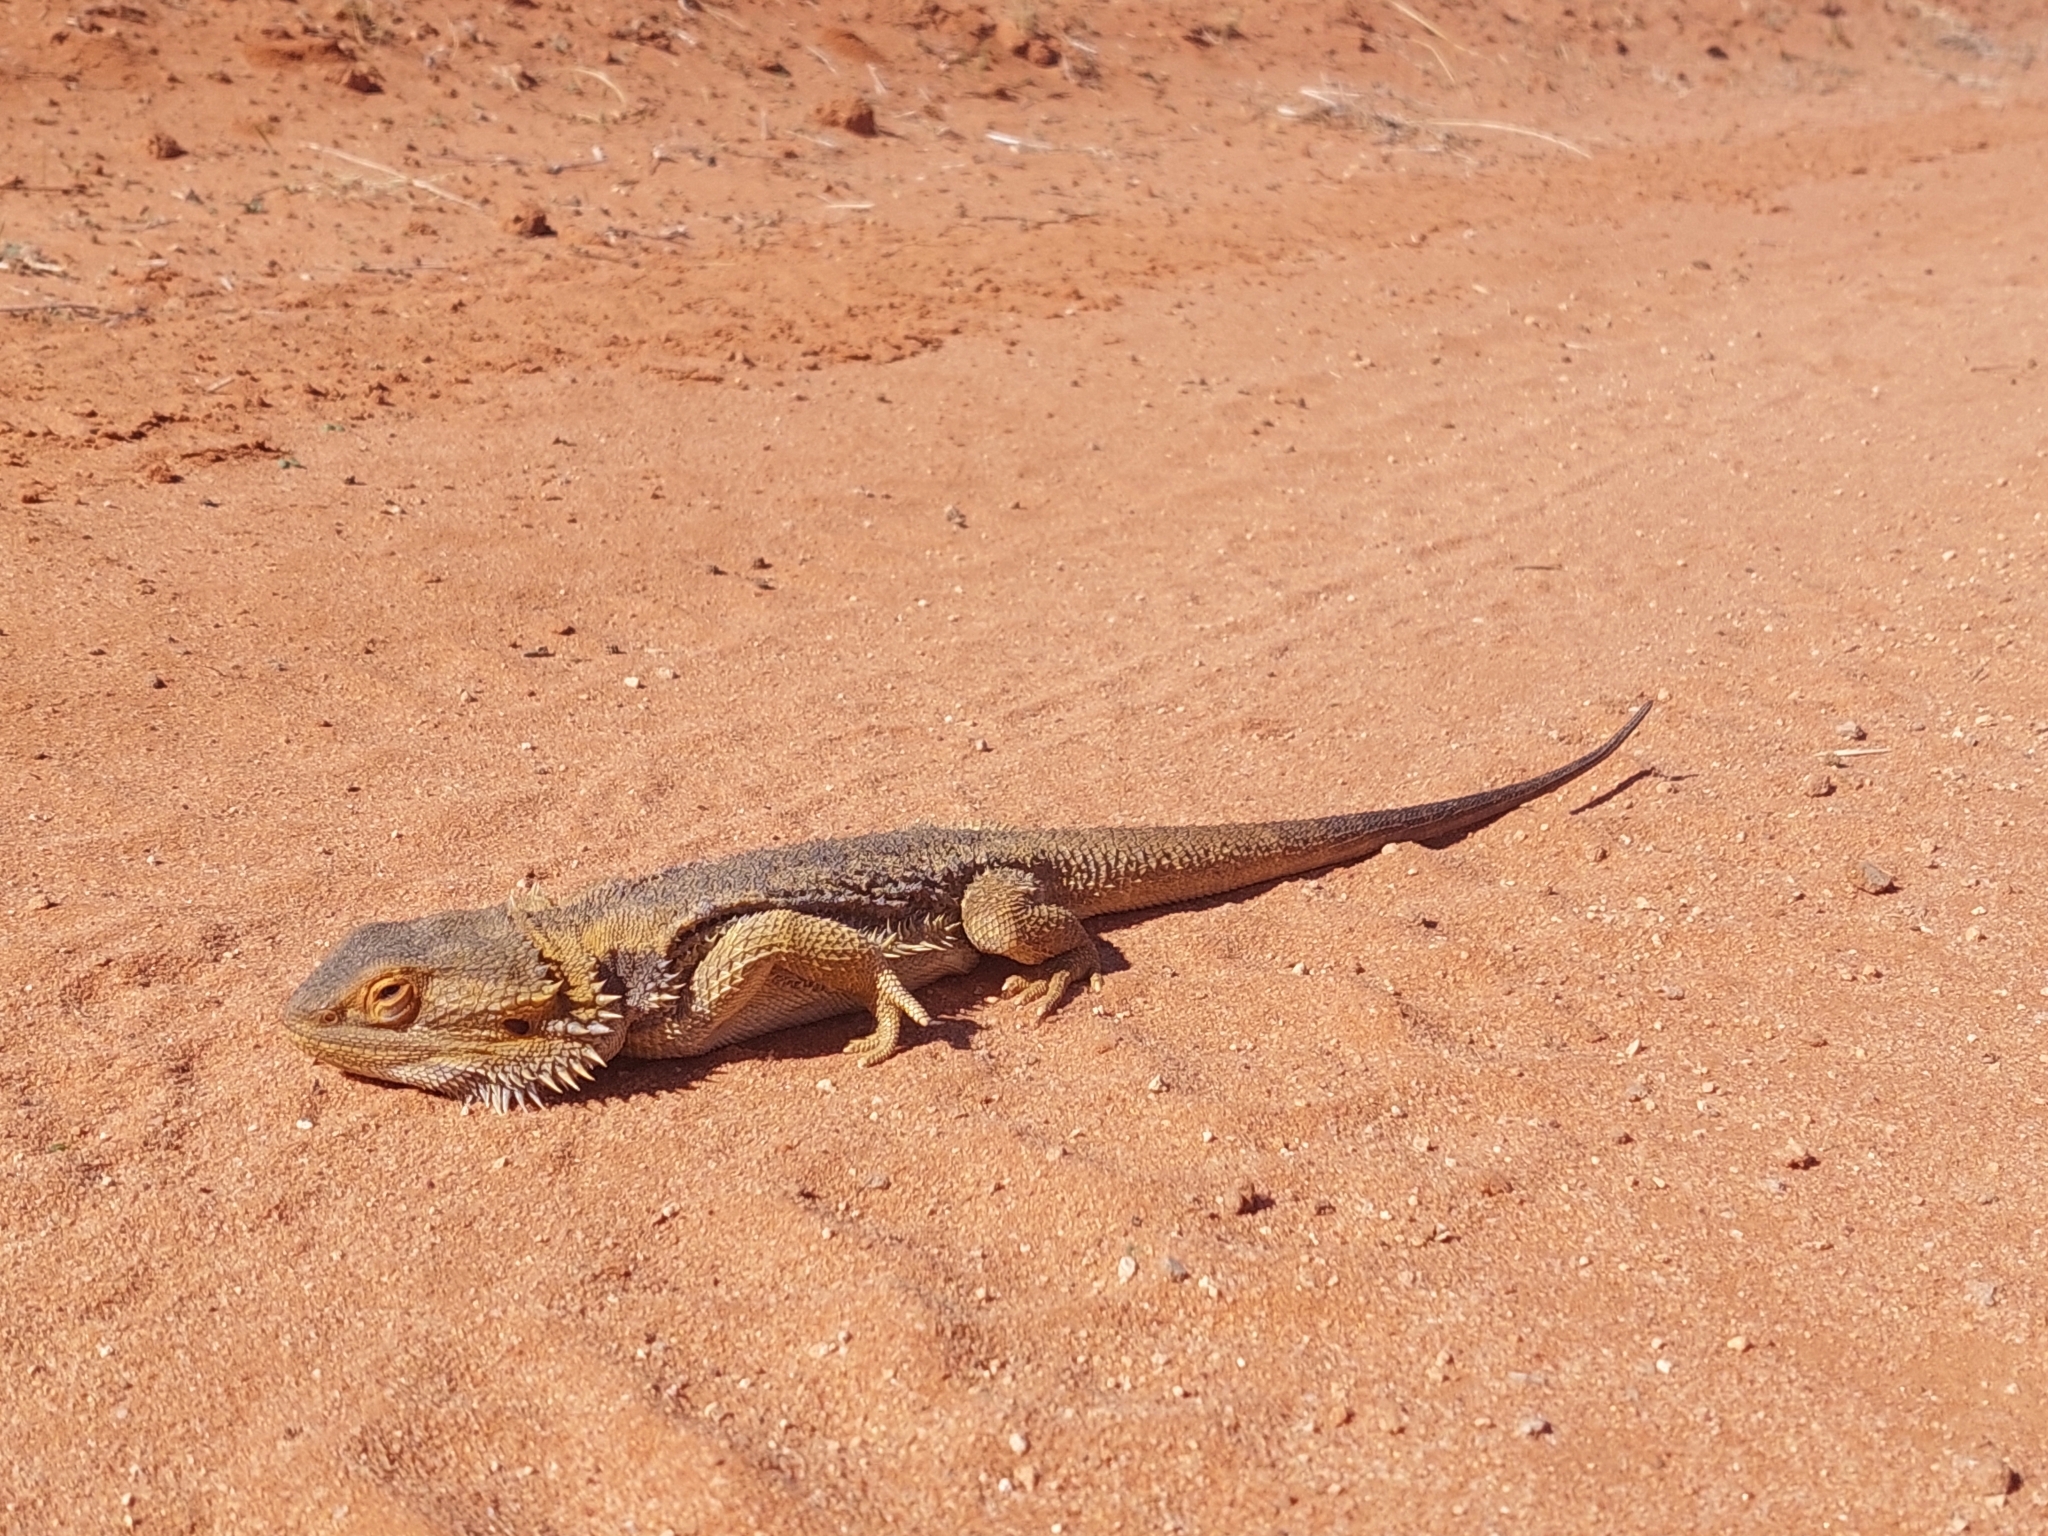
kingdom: Animalia
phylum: Chordata
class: Squamata
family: Agamidae
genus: Pogona
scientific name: Pogona vitticeps
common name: Central bearded dragon
